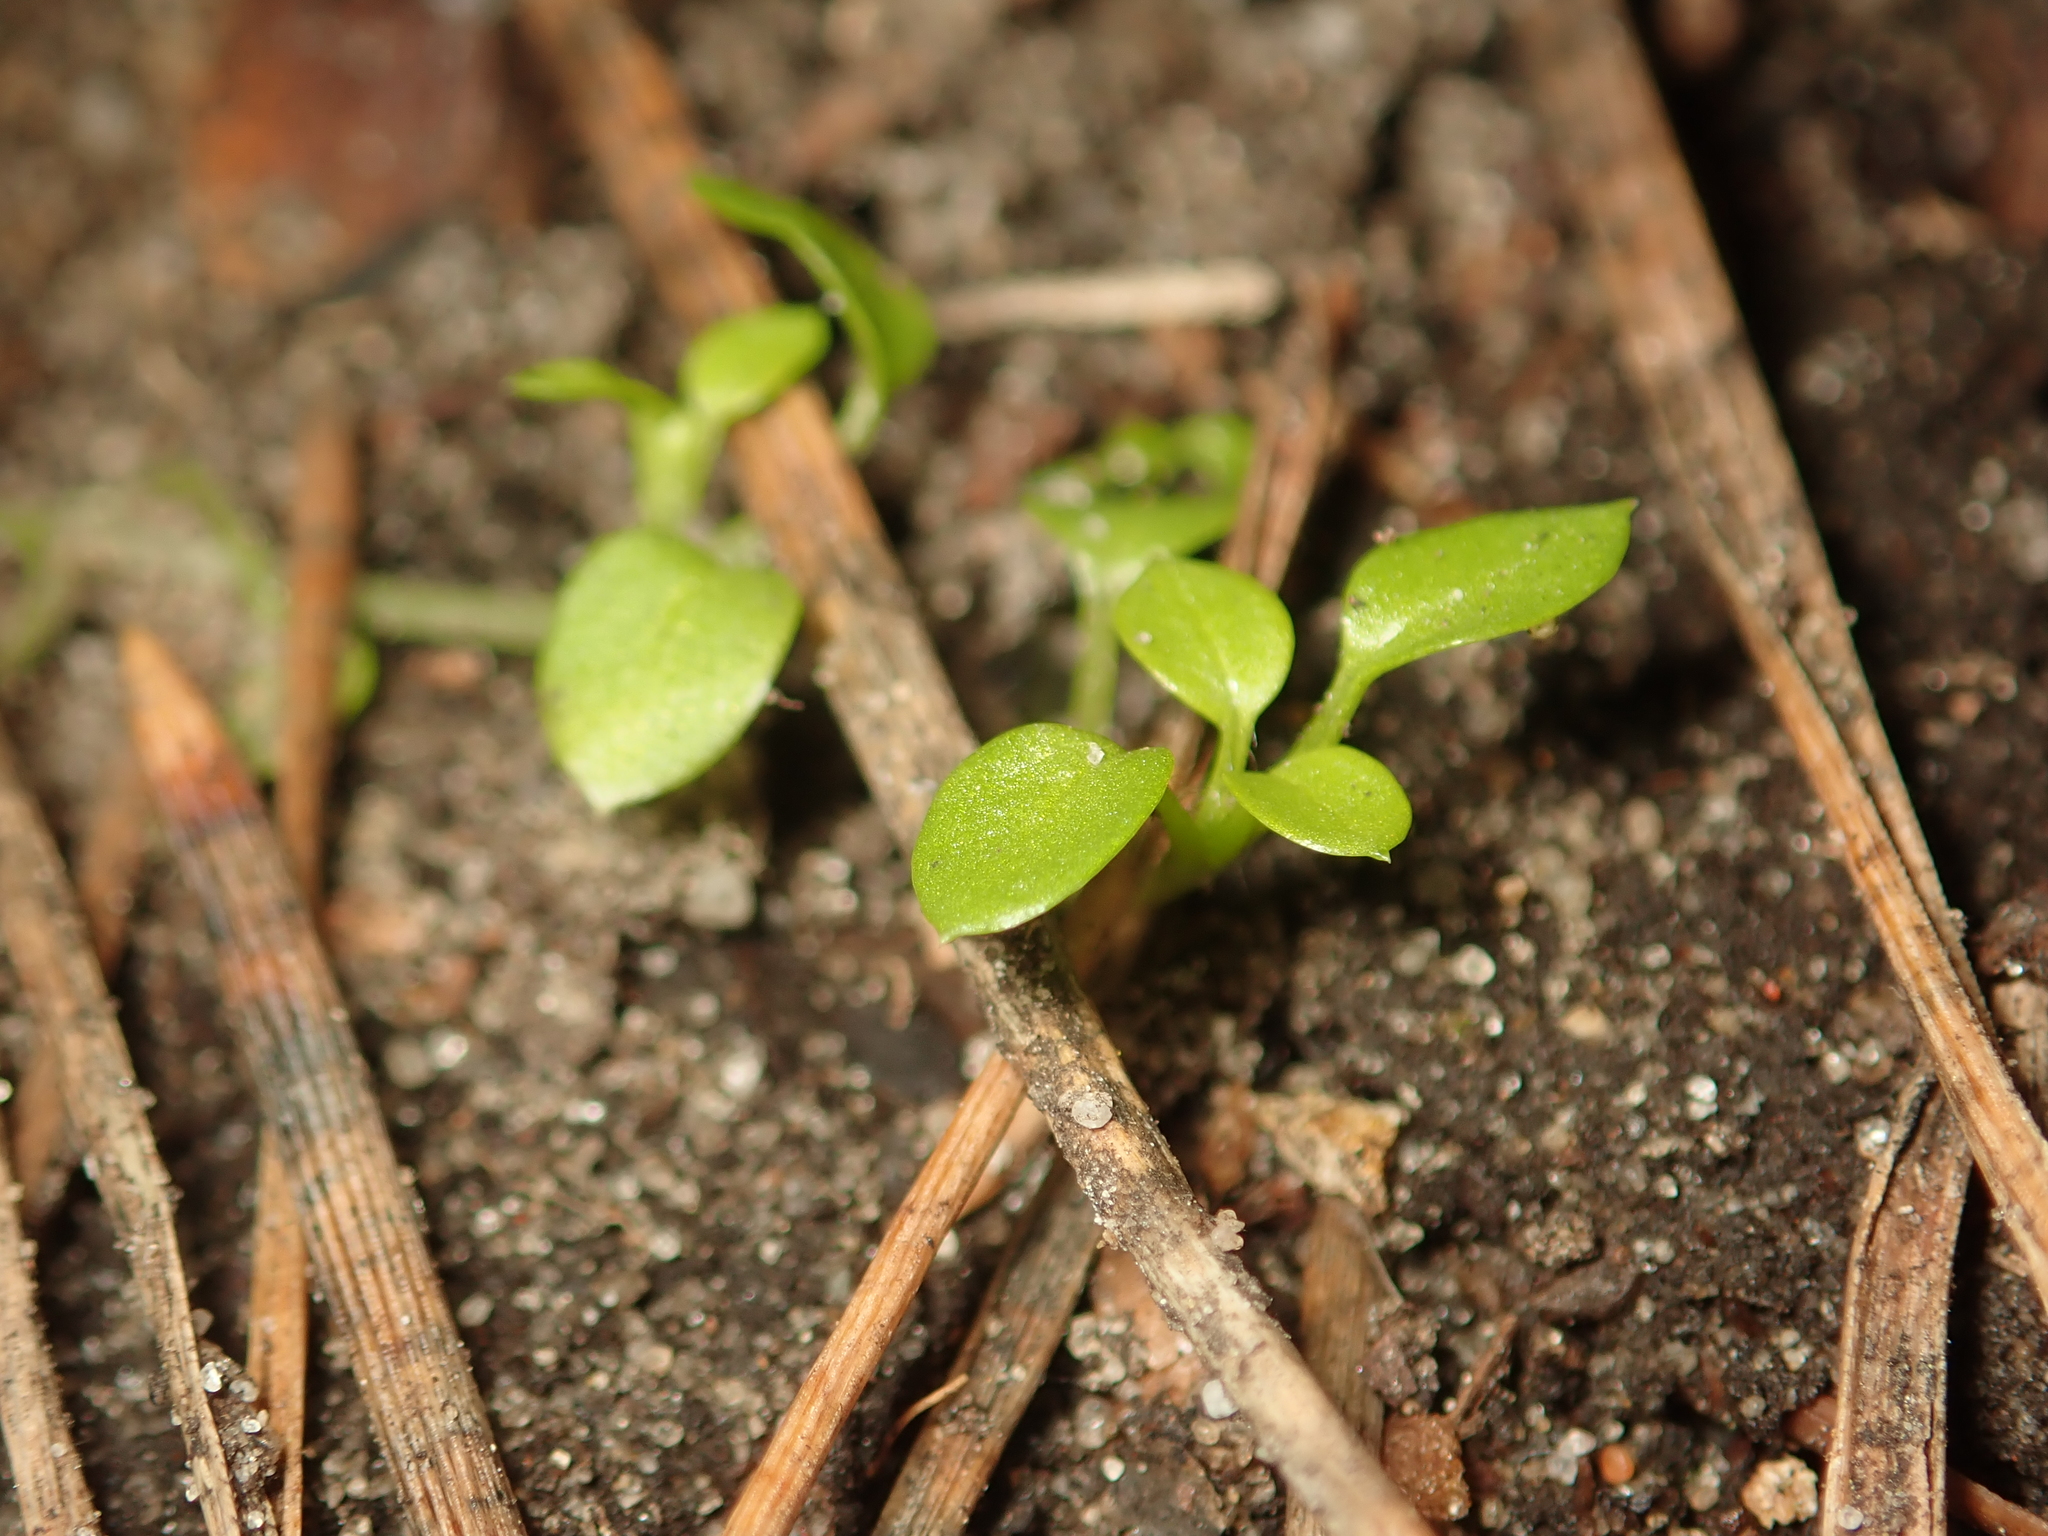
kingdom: Plantae
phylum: Tracheophyta
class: Magnoliopsida
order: Caryophyllales
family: Caryophyllaceae
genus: Stellaria
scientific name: Stellaria
